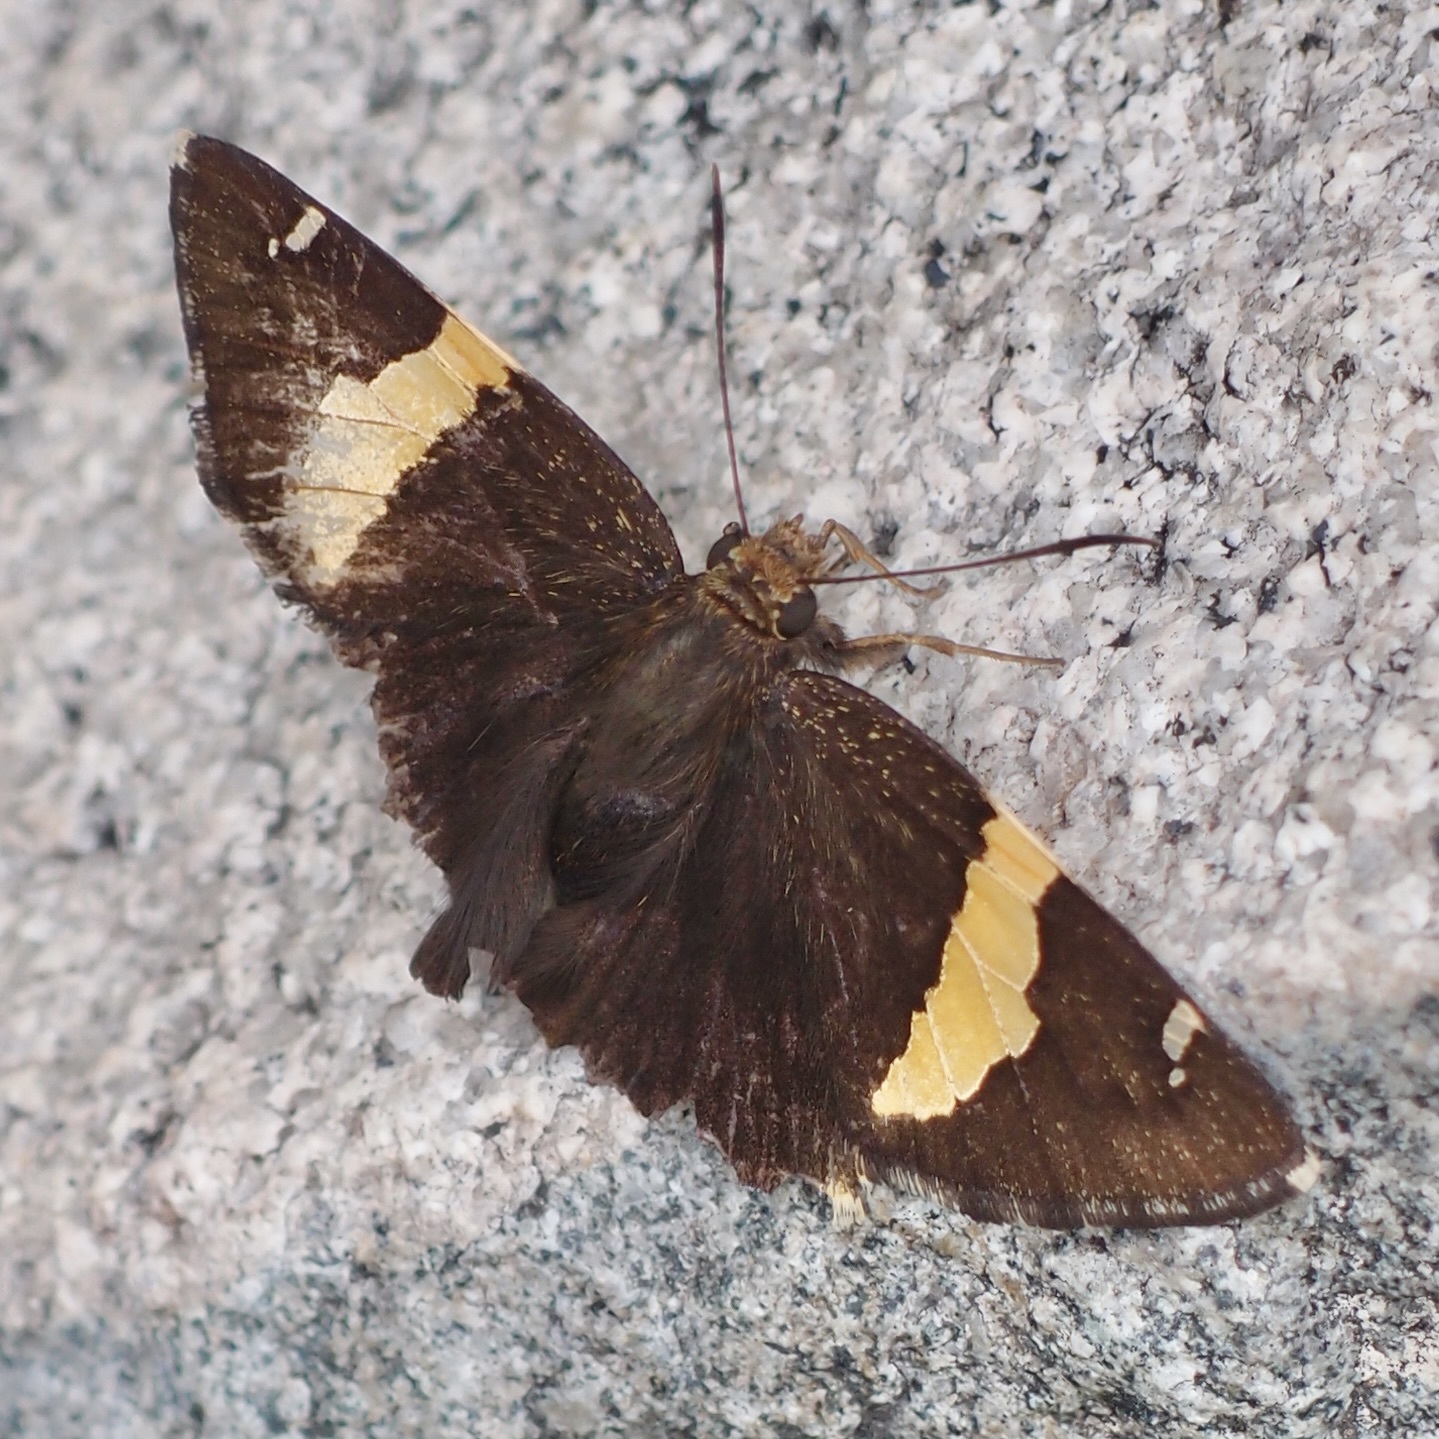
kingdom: Animalia
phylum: Arthropoda
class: Arachnida
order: Scorpiones
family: Bothriuridae
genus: Telegonus
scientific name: Telegonus cellus
